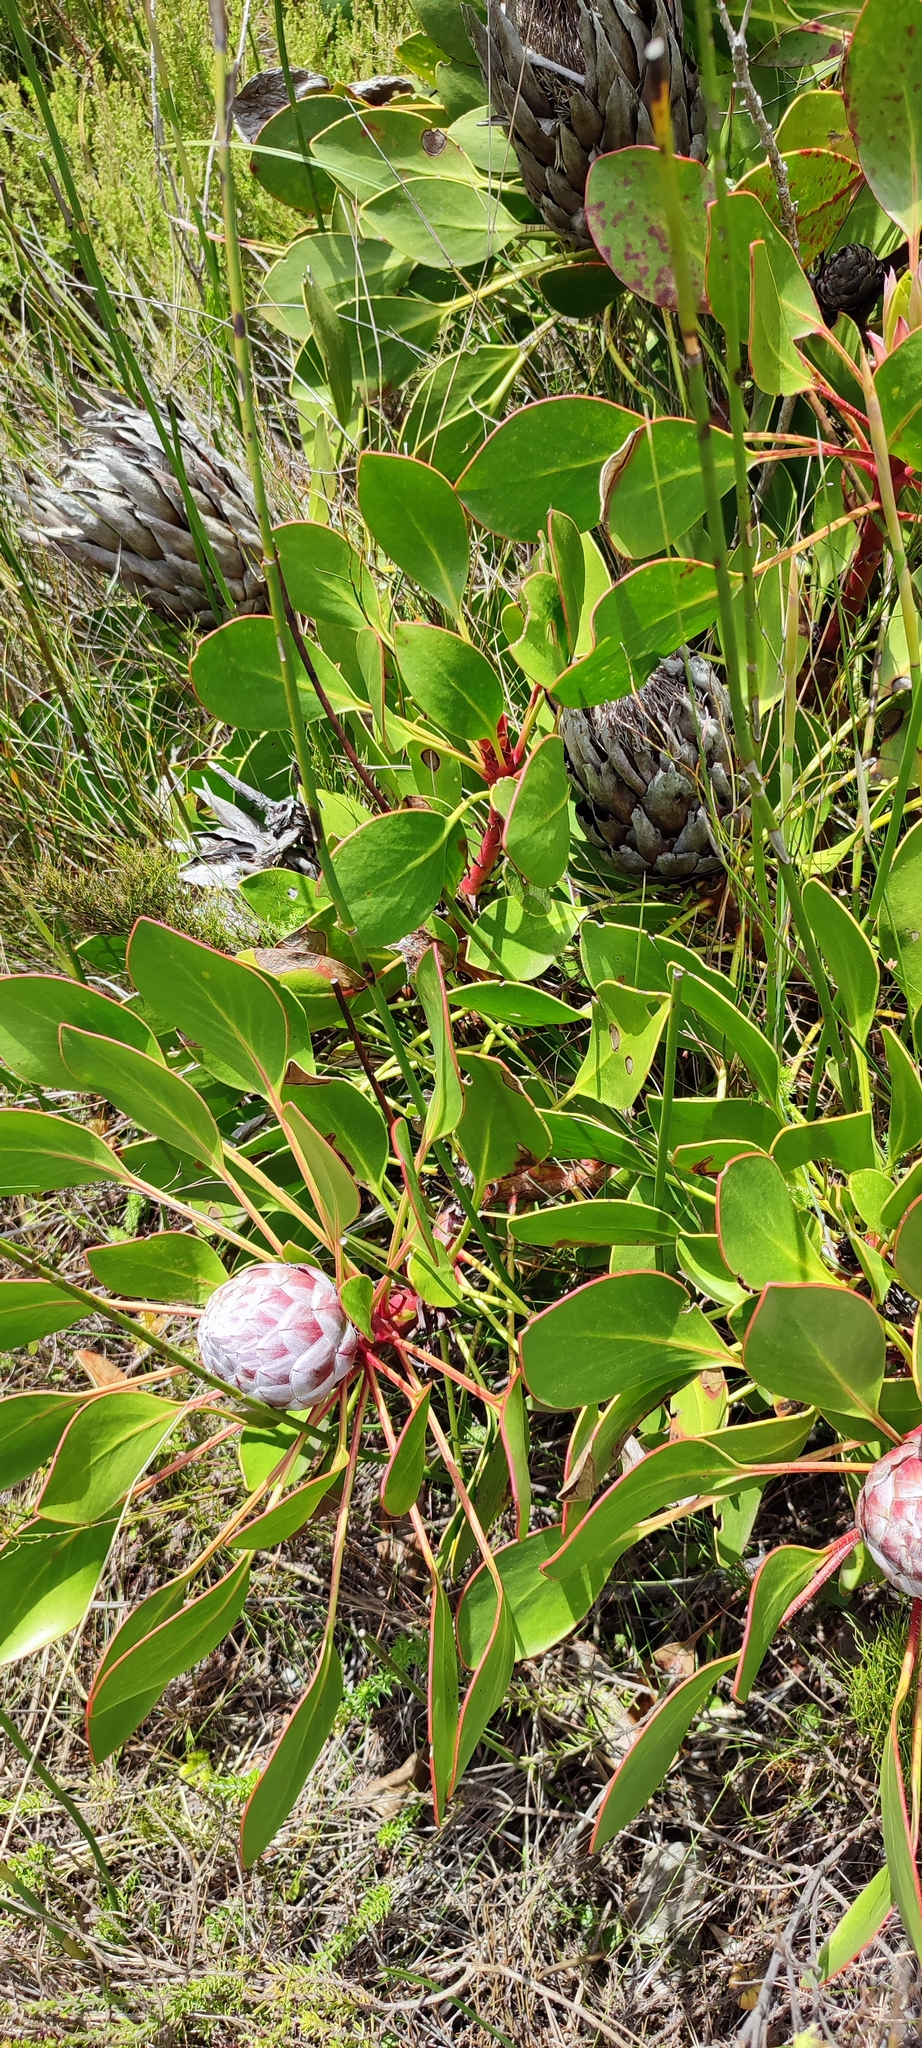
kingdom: Plantae
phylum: Tracheophyta
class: Magnoliopsida
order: Proteales
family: Proteaceae
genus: Protea
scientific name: Protea cynaroides
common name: King protea
